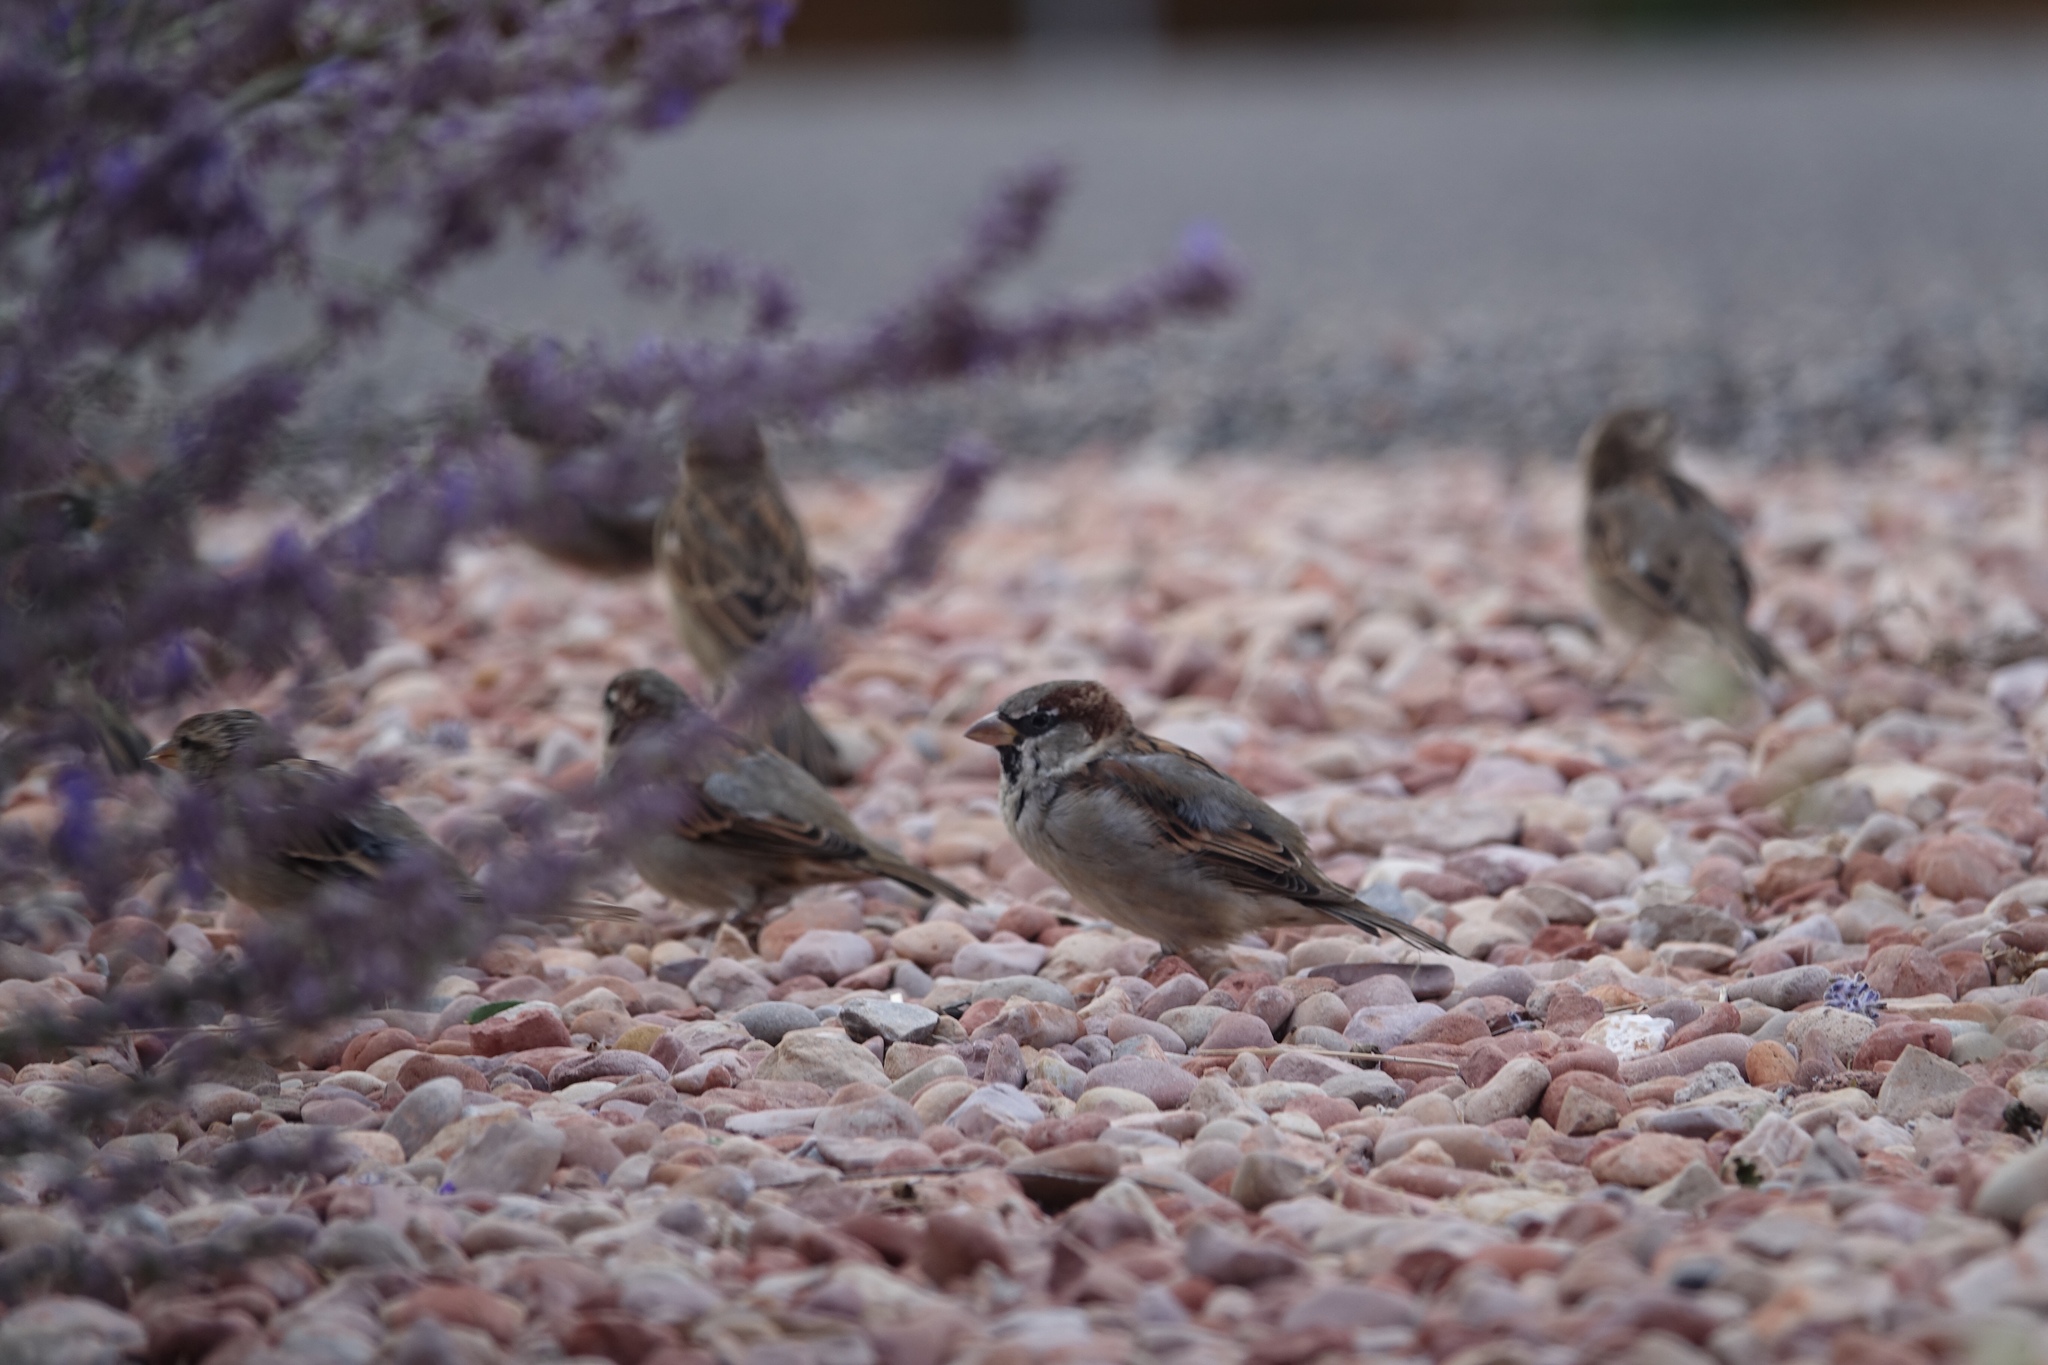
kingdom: Animalia
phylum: Chordata
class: Aves
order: Passeriformes
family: Passeridae
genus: Passer
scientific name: Passer domesticus
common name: House sparrow
